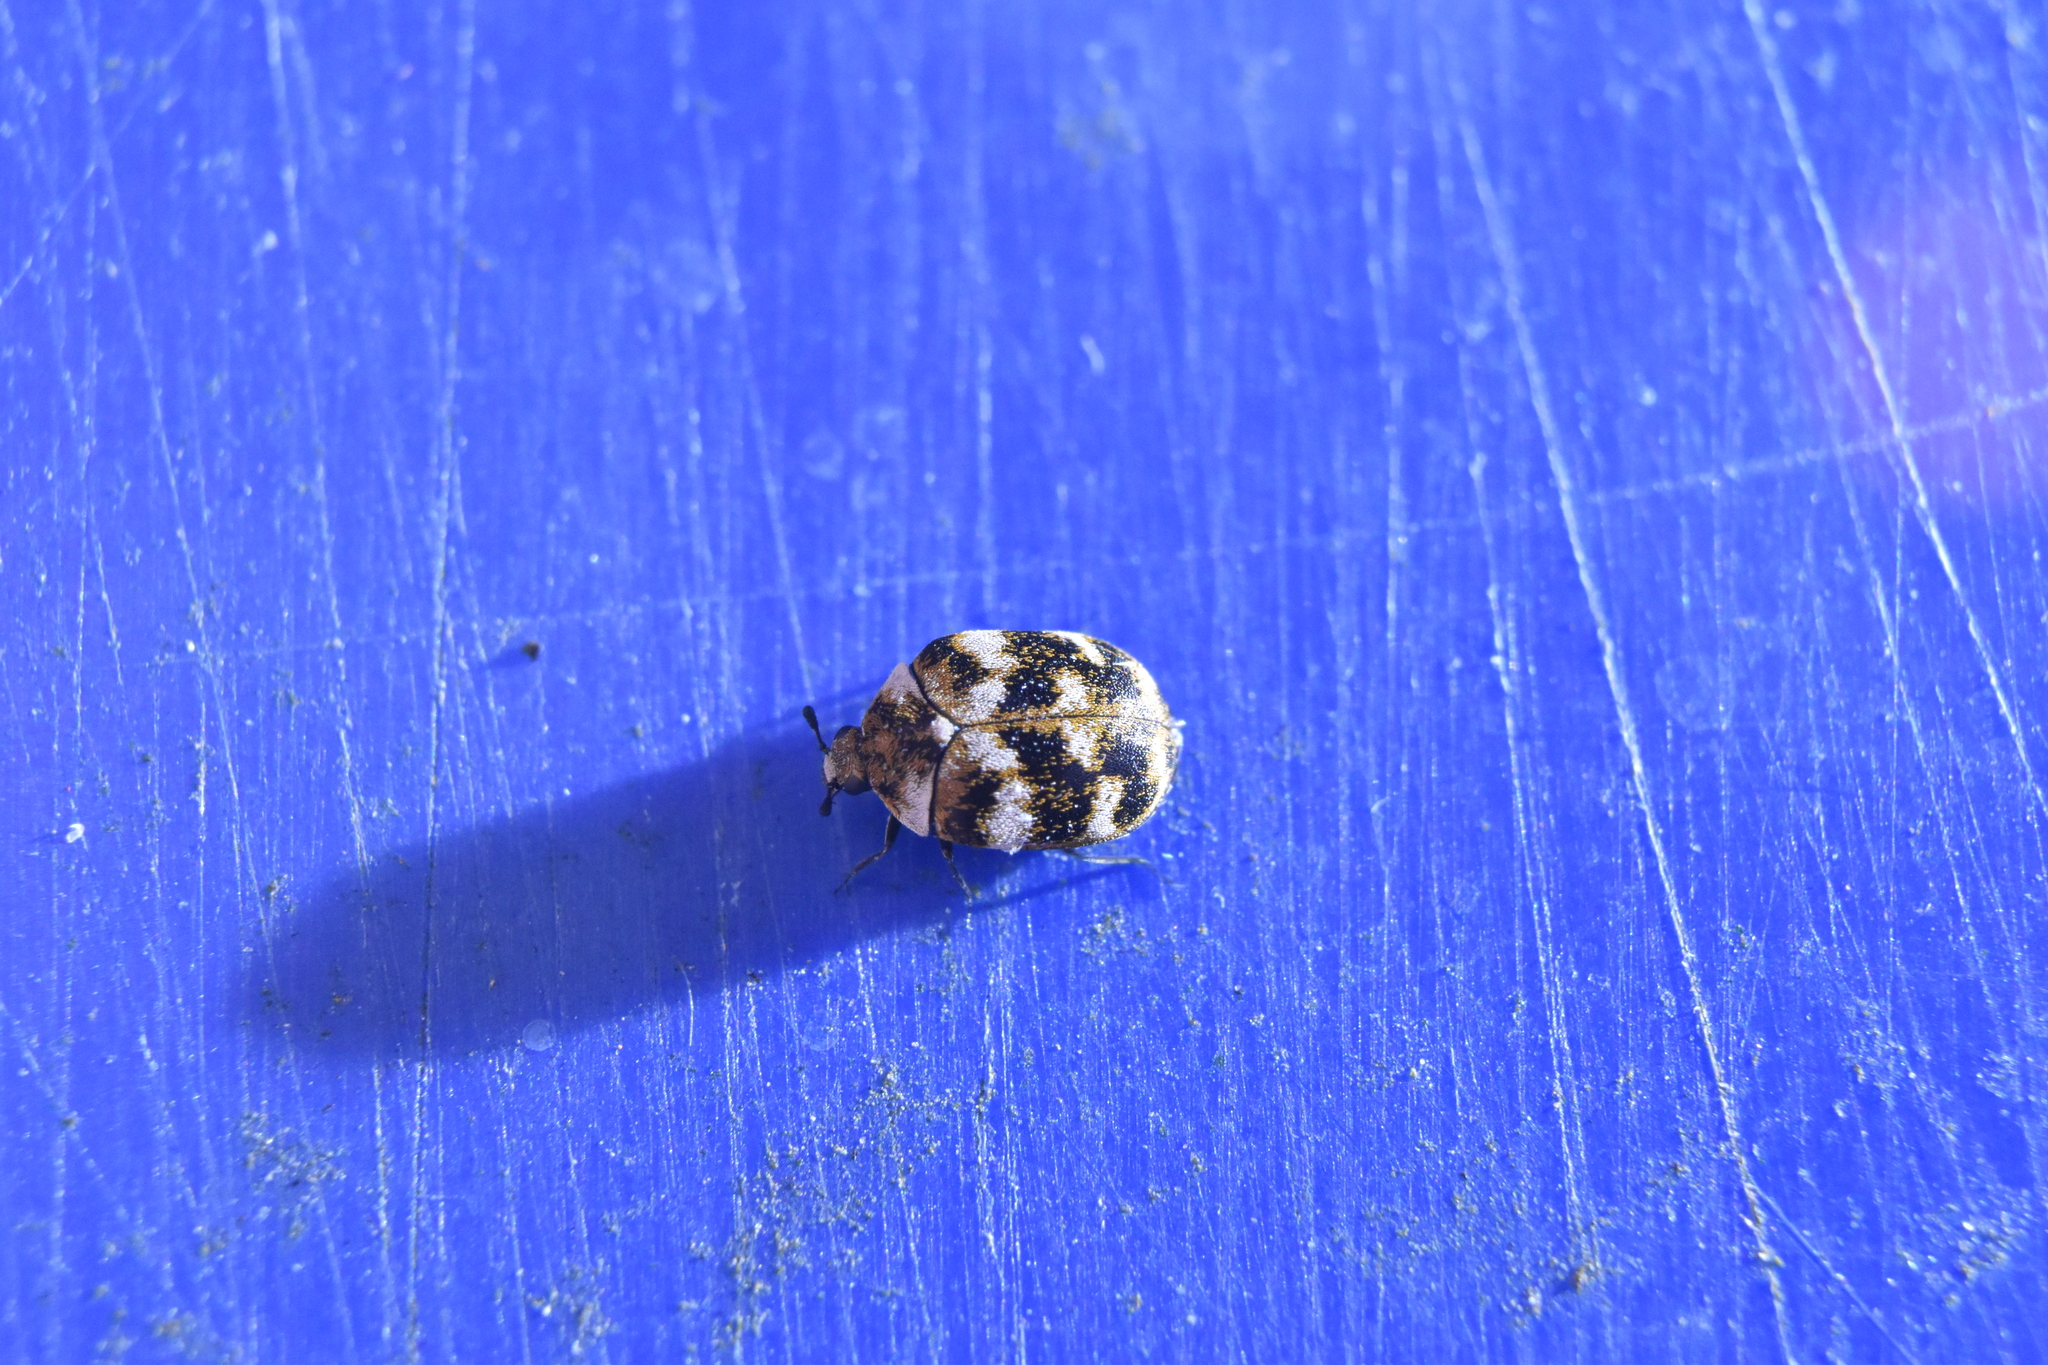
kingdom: Animalia
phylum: Arthropoda
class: Insecta
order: Coleoptera
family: Dermestidae
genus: Anthrenus
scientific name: Anthrenus verbasci
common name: Varied carpet beetle
